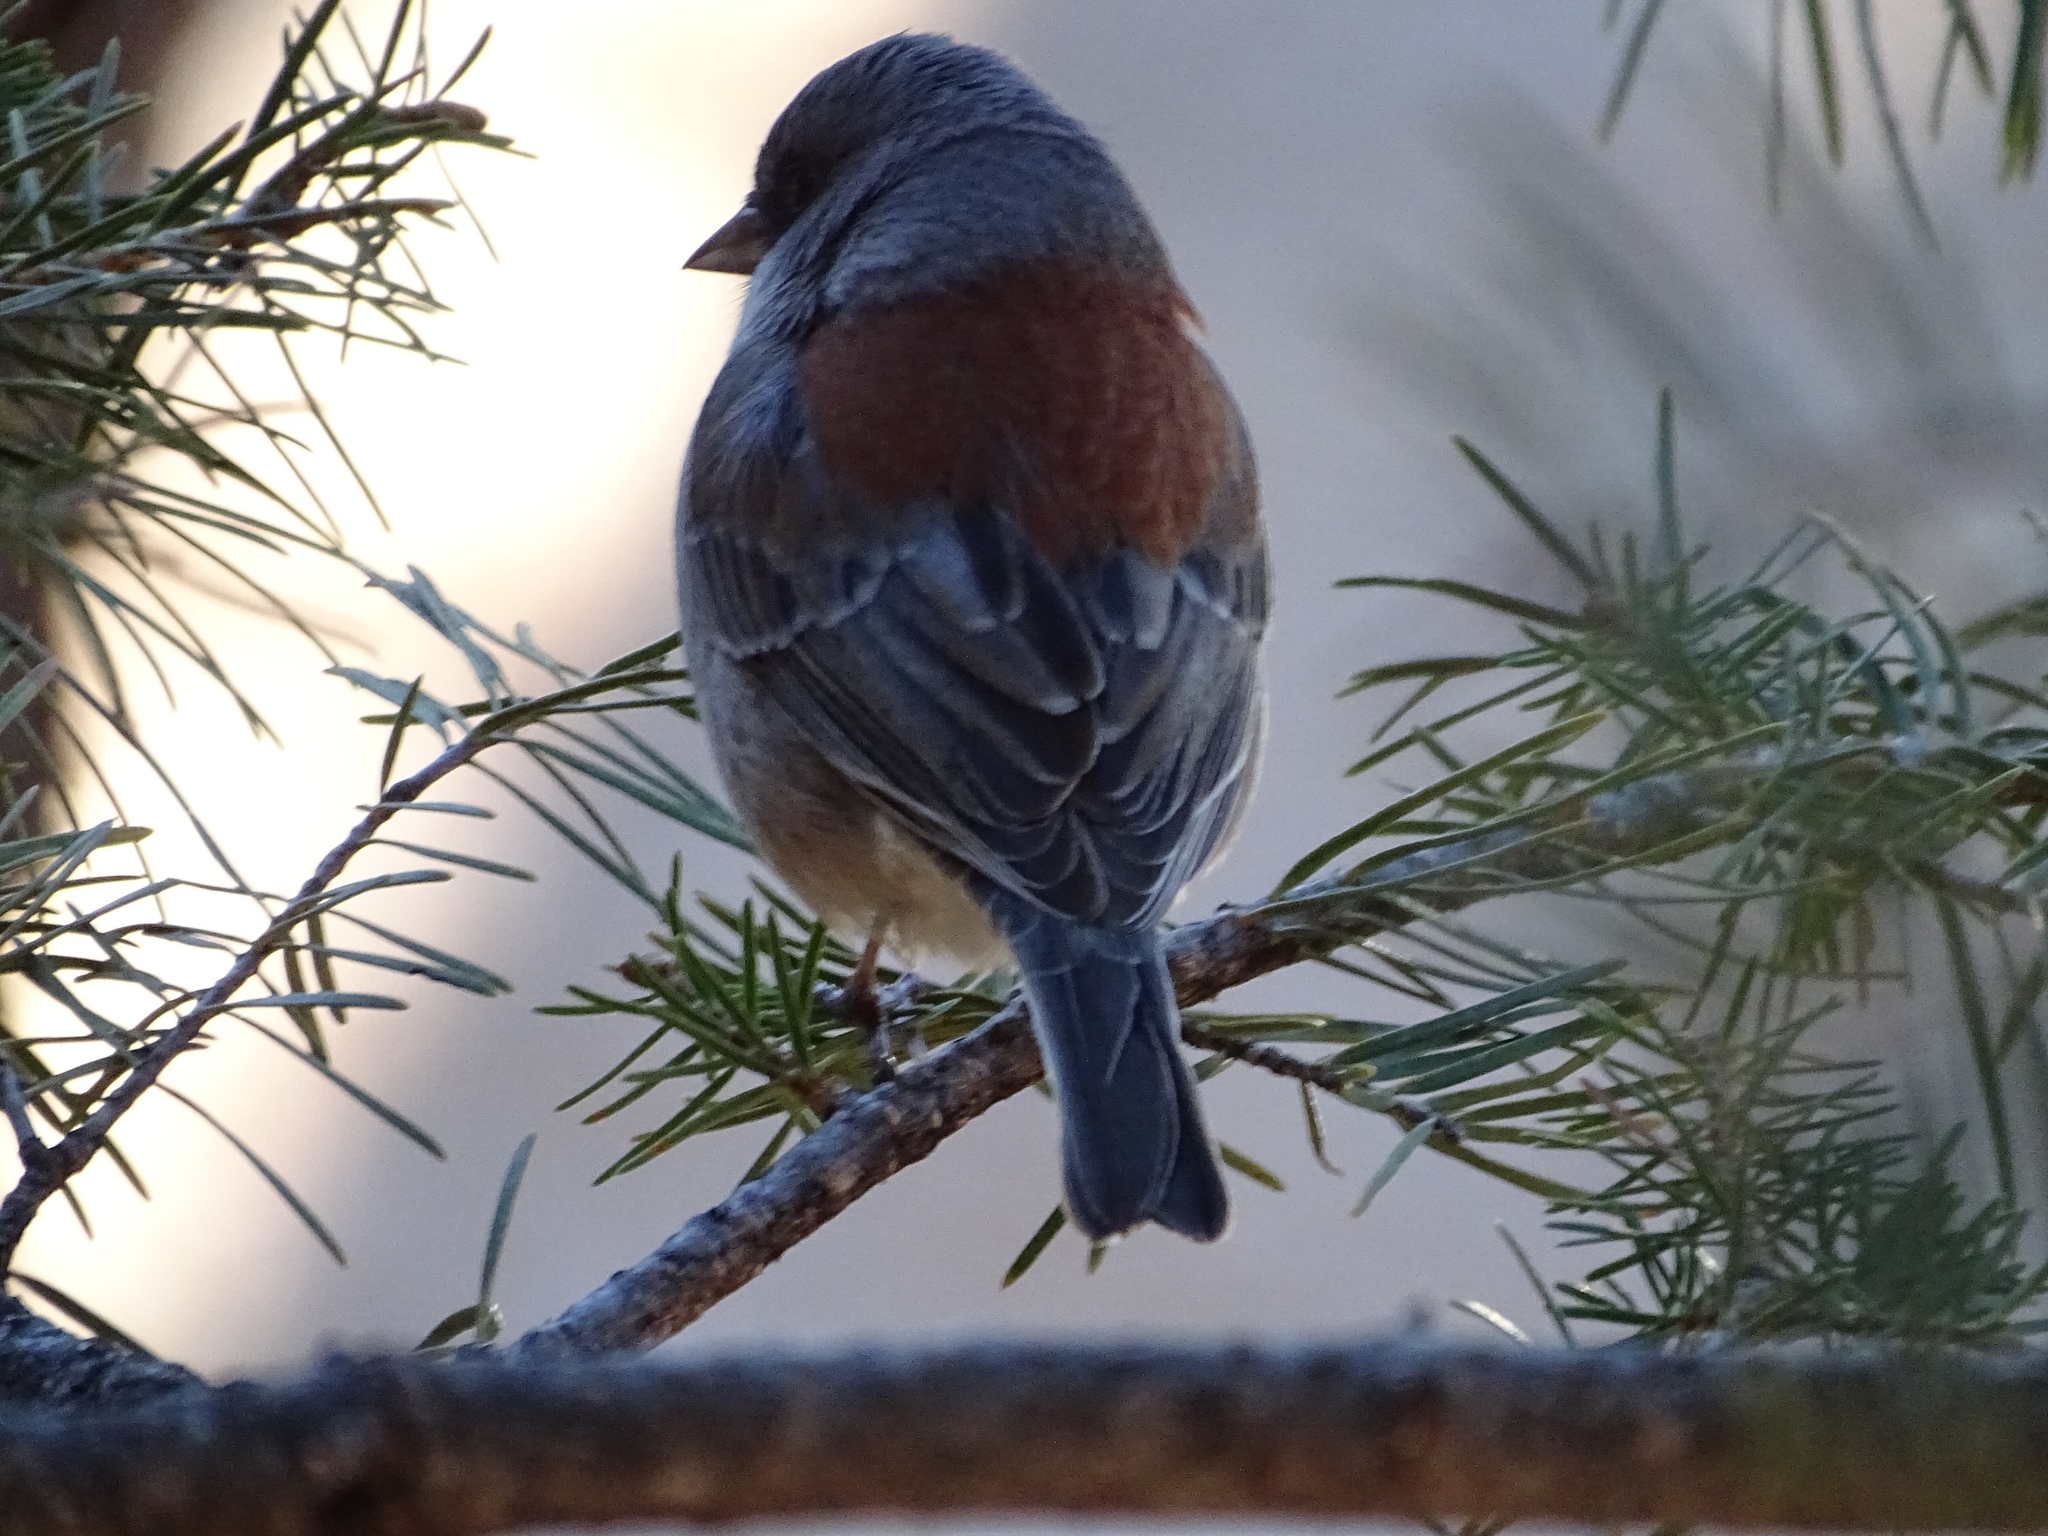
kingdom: Animalia
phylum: Chordata
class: Aves
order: Passeriformes
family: Passerellidae
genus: Junco
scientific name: Junco hyemalis
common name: Dark-eyed junco
